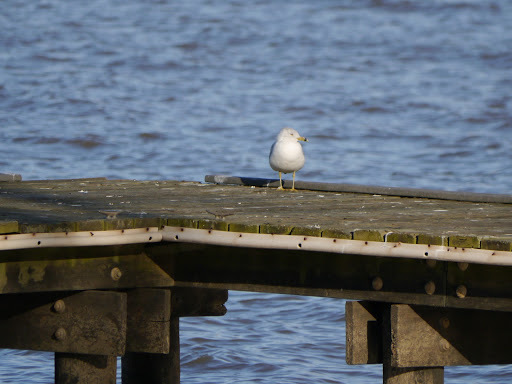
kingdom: Animalia
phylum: Chordata
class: Aves
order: Charadriiformes
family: Laridae
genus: Larus
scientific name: Larus delawarensis
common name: Ring-billed gull
